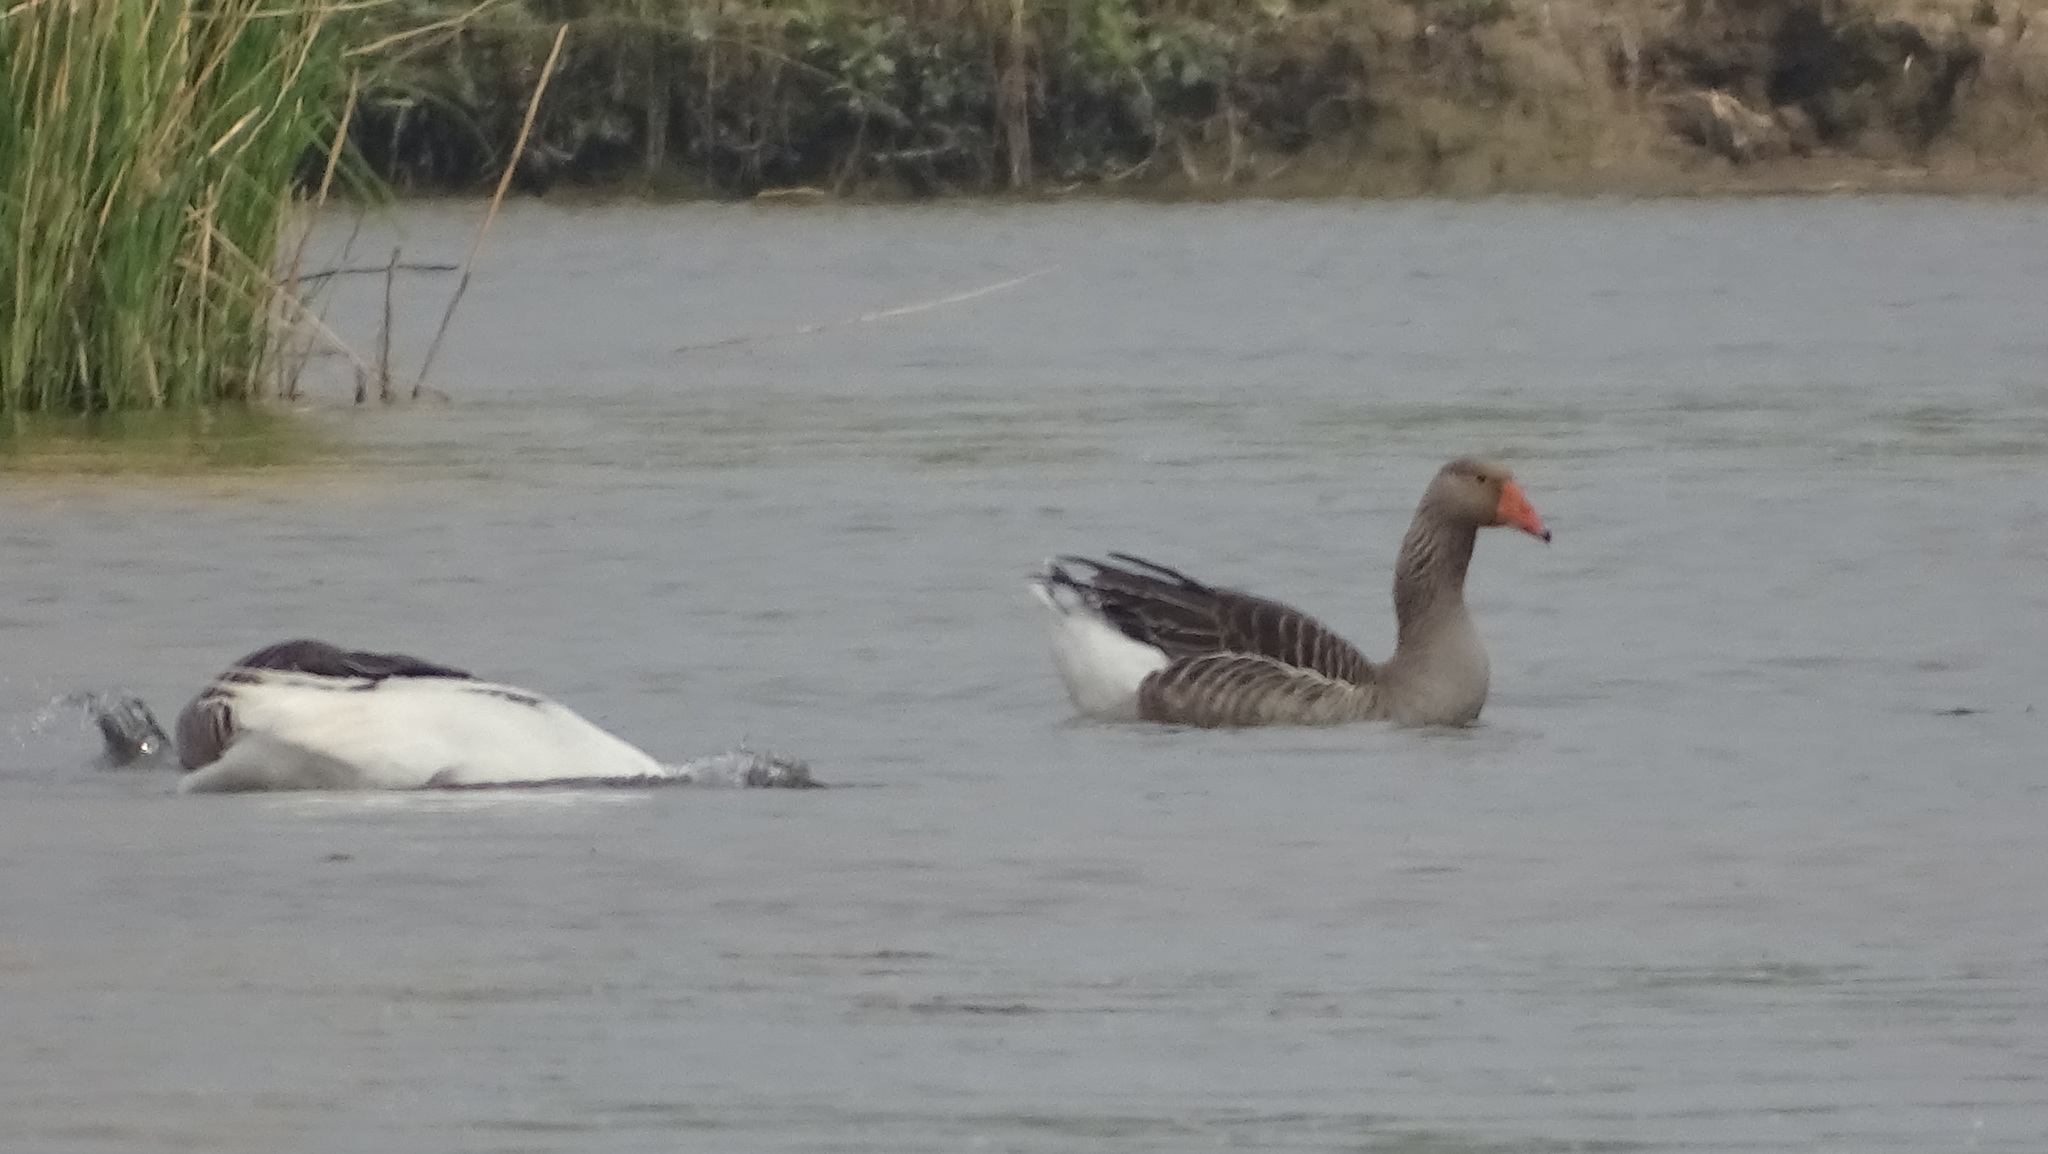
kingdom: Animalia
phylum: Chordata
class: Aves
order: Anseriformes
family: Anatidae
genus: Anser
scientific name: Anser anser
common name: Greylag goose
